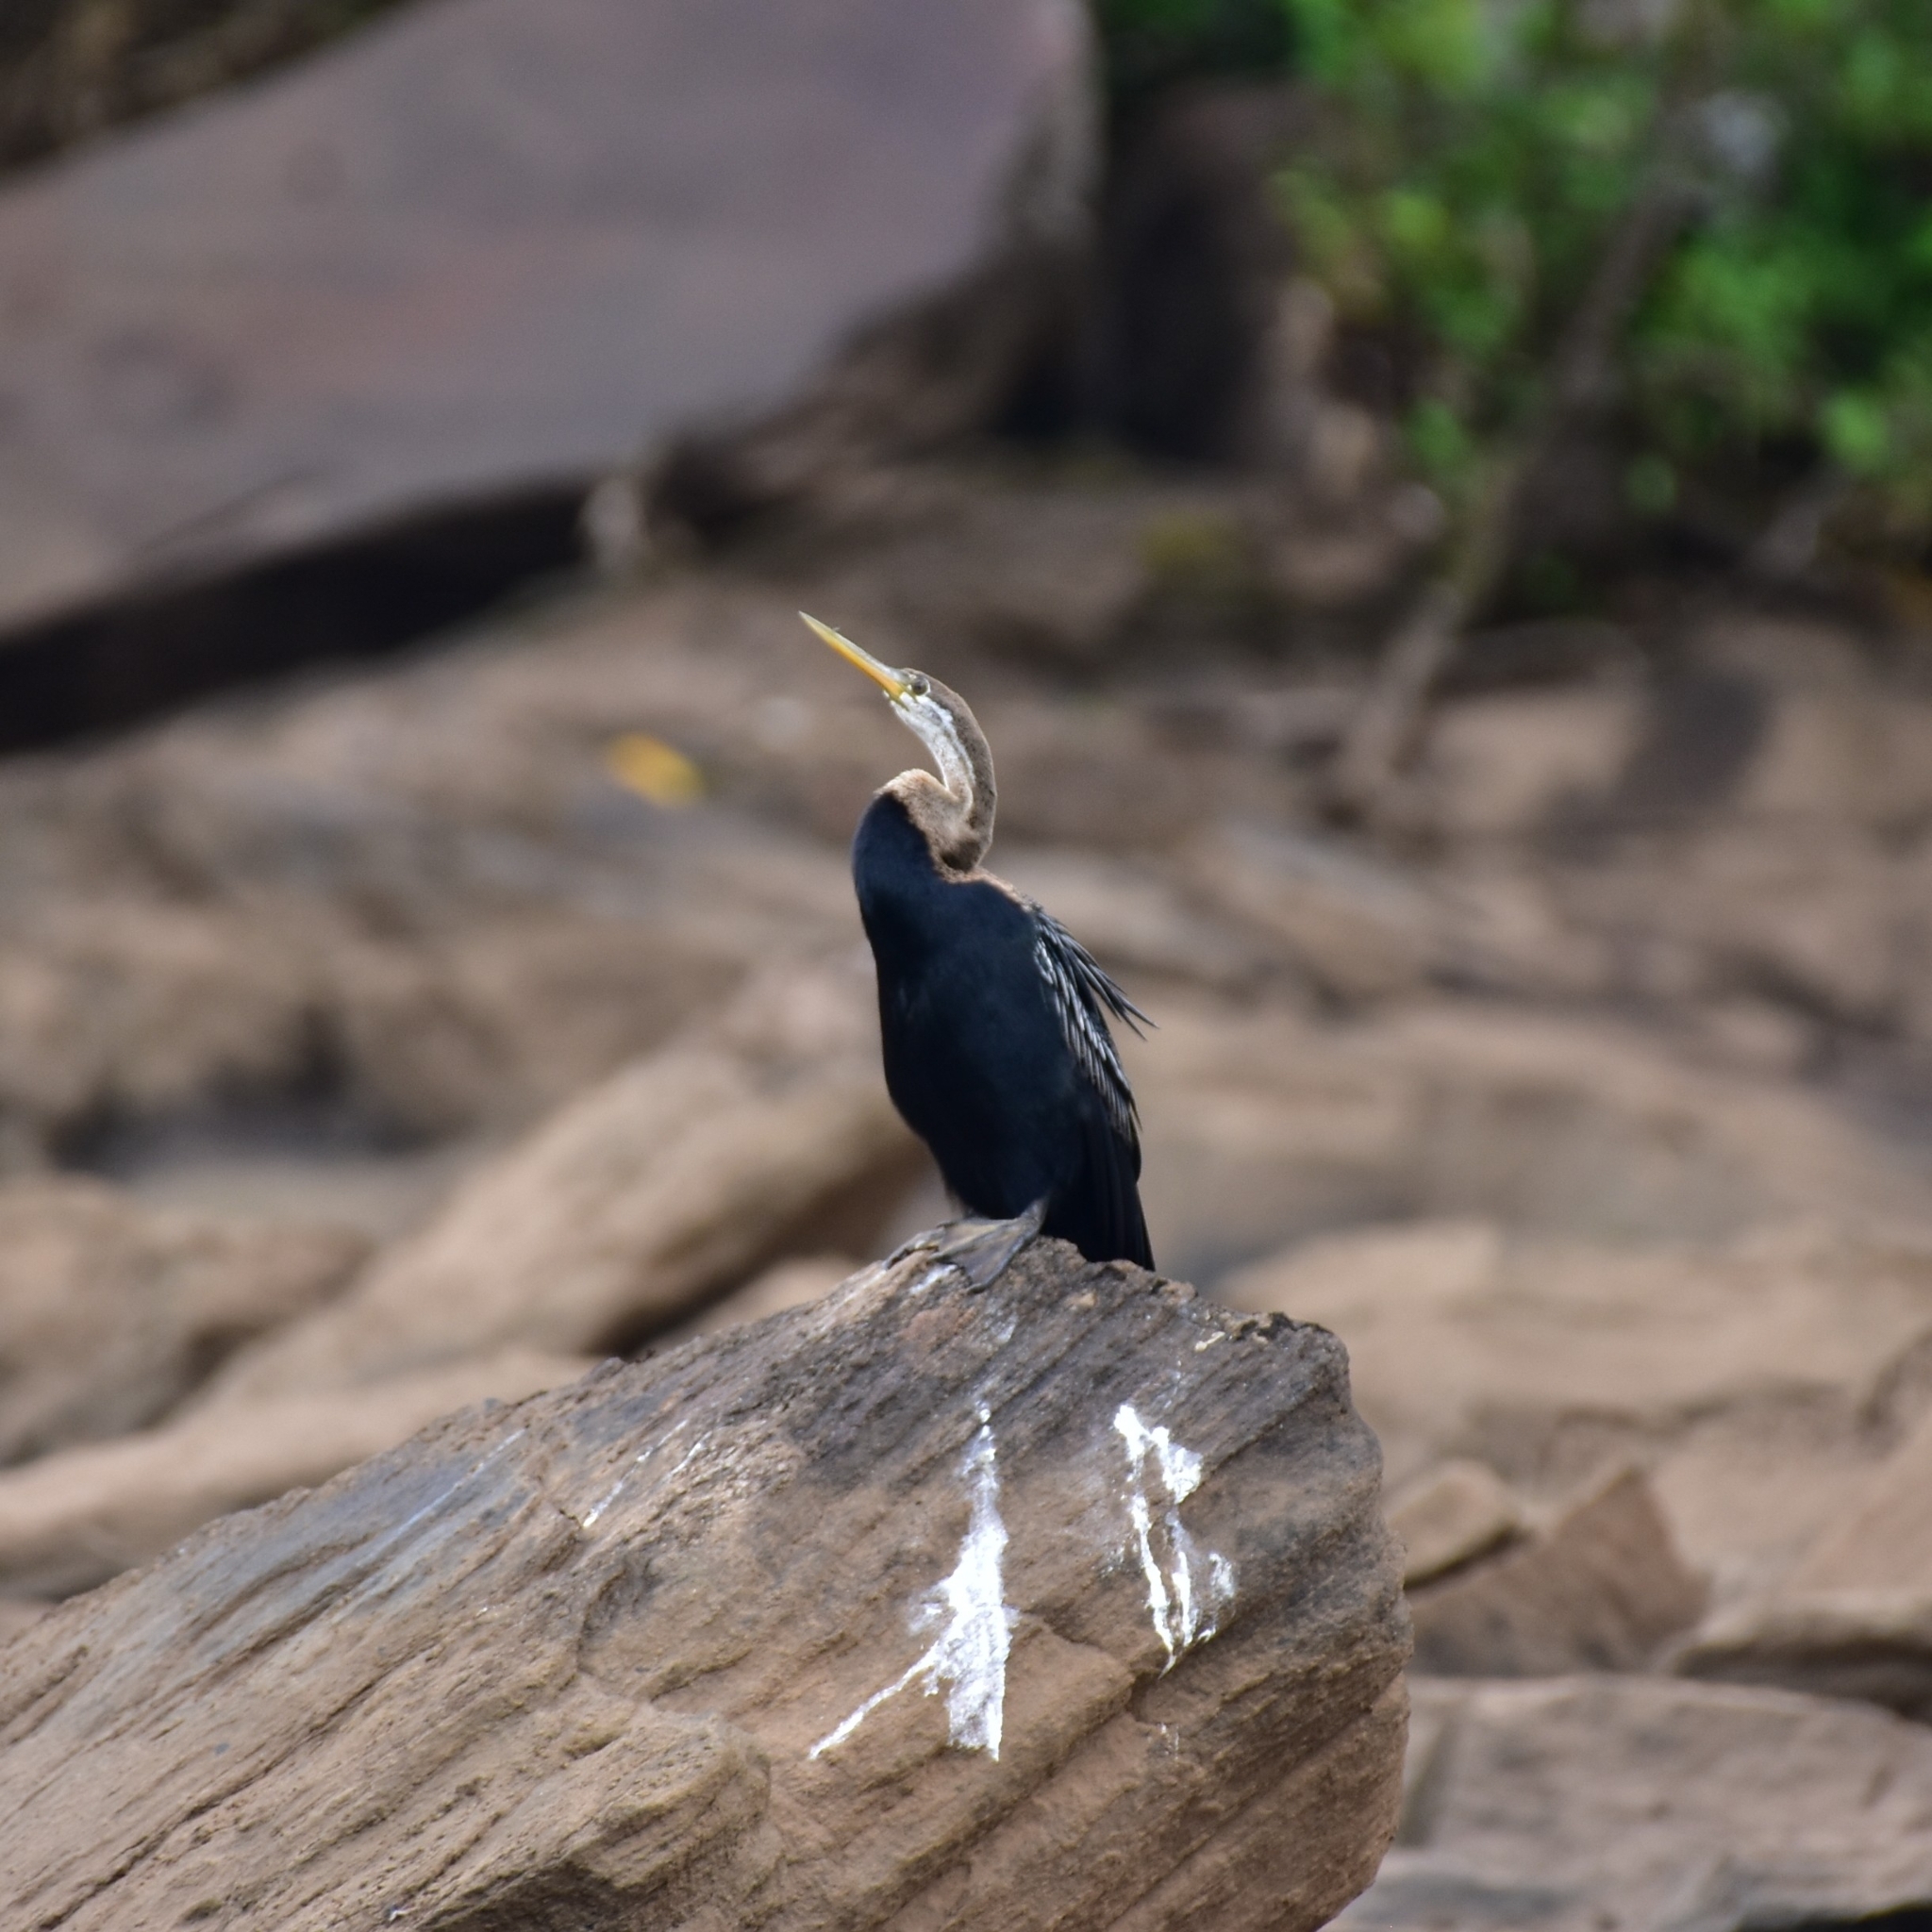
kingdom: Animalia
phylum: Chordata
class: Aves
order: Suliformes
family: Anhingidae
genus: Anhinga
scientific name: Anhinga melanogaster
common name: Oriental darter
